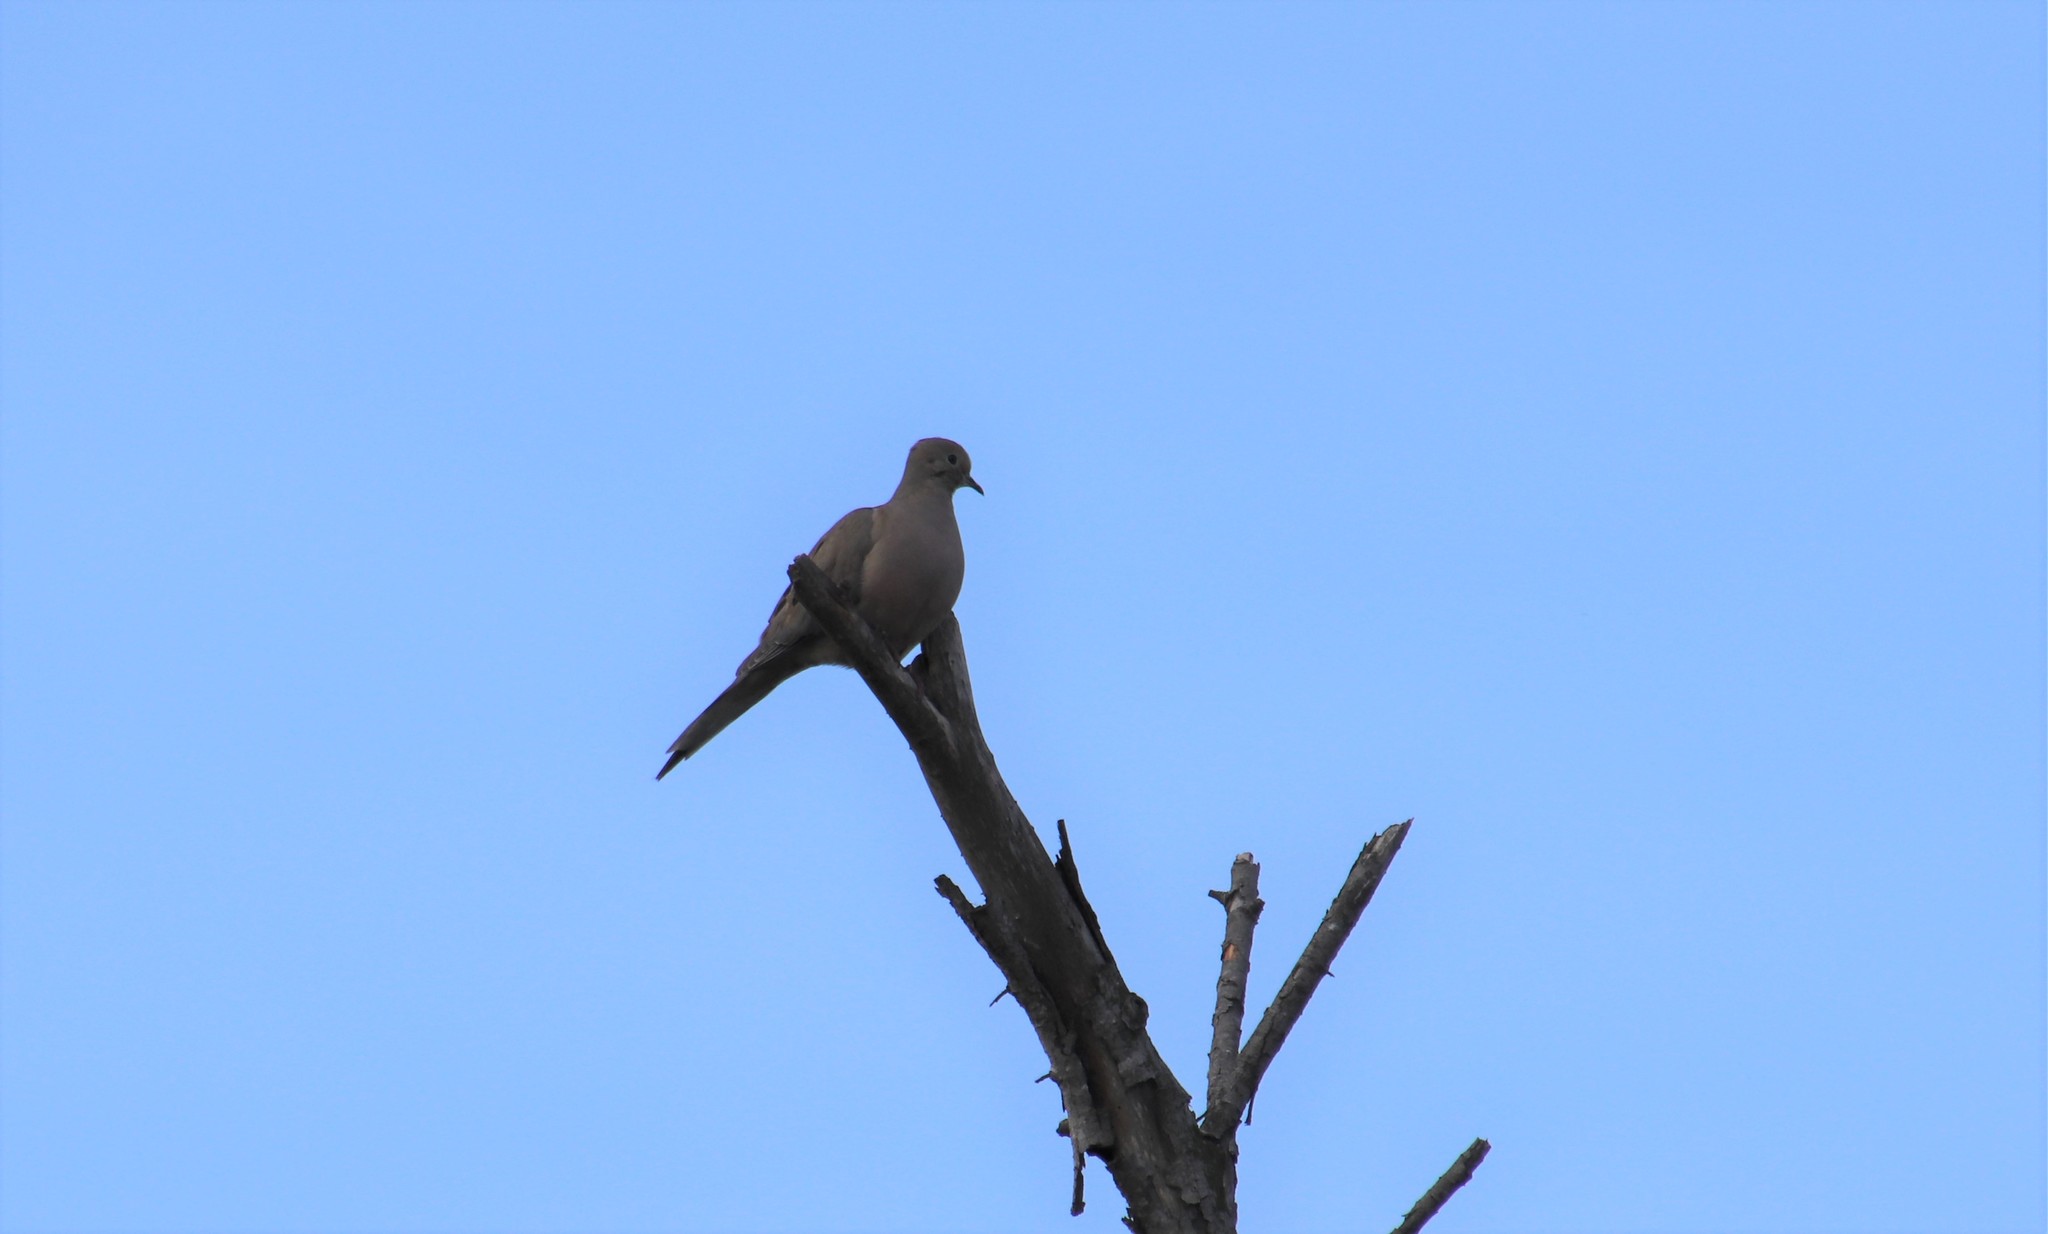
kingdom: Animalia
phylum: Chordata
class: Aves
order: Columbiformes
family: Columbidae
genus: Zenaida
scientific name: Zenaida macroura
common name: Mourning dove
